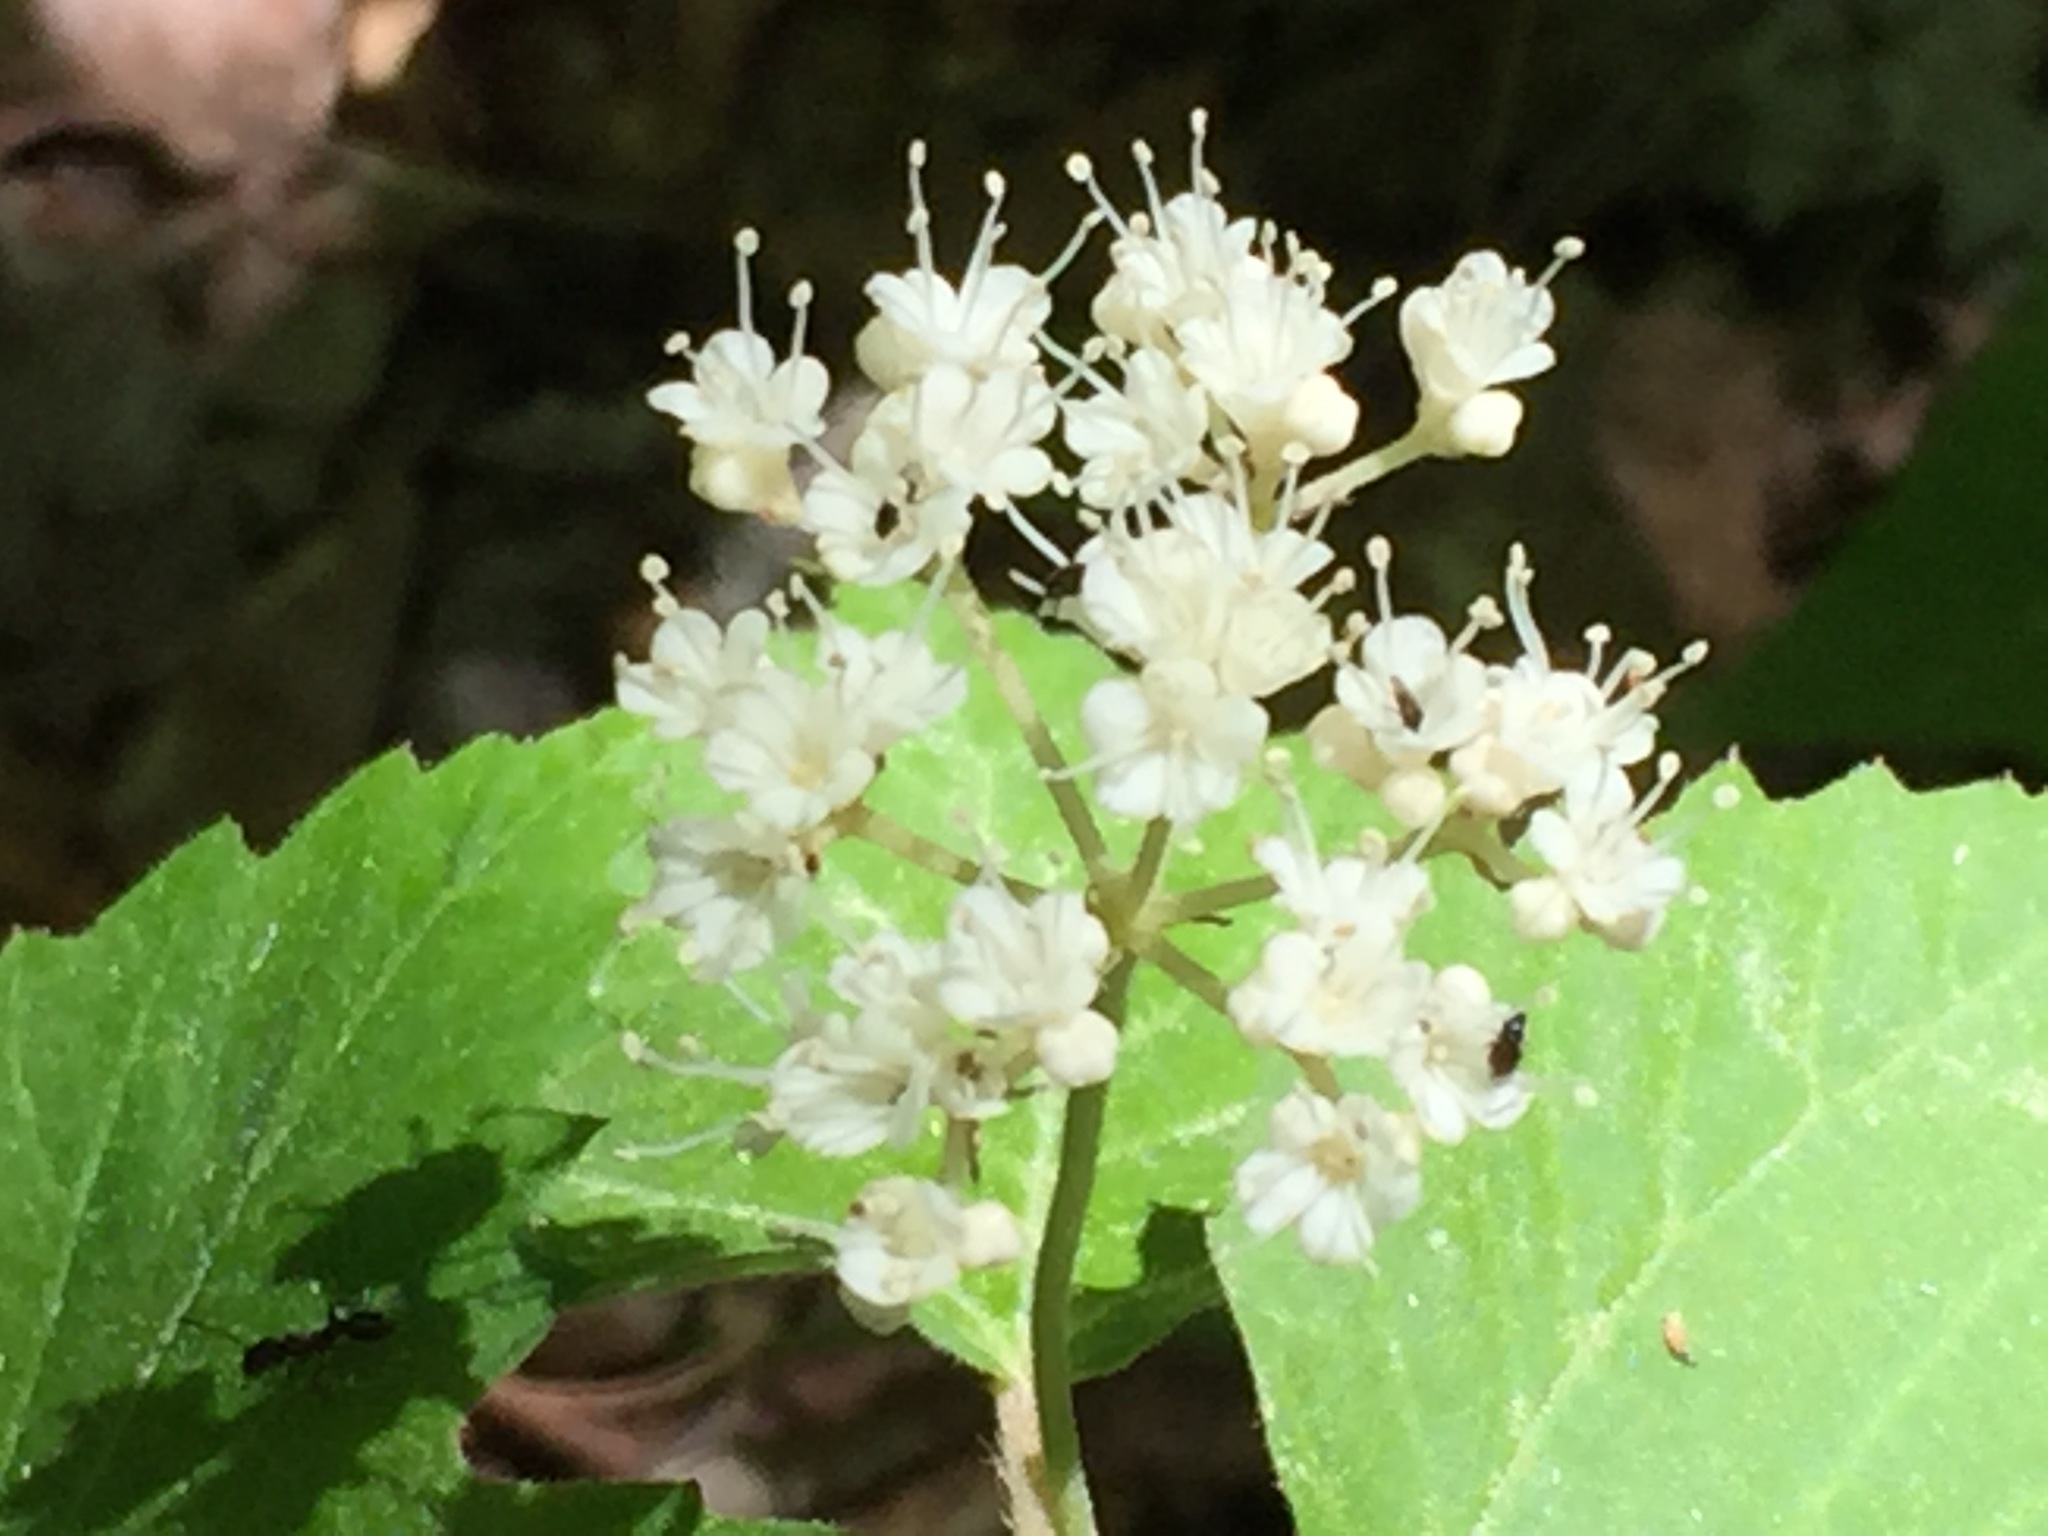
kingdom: Plantae
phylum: Tracheophyta
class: Magnoliopsida
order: Dipsacales
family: Viburnaceae
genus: Viburnum
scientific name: Viburnum acerifolium
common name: Dockmackie
